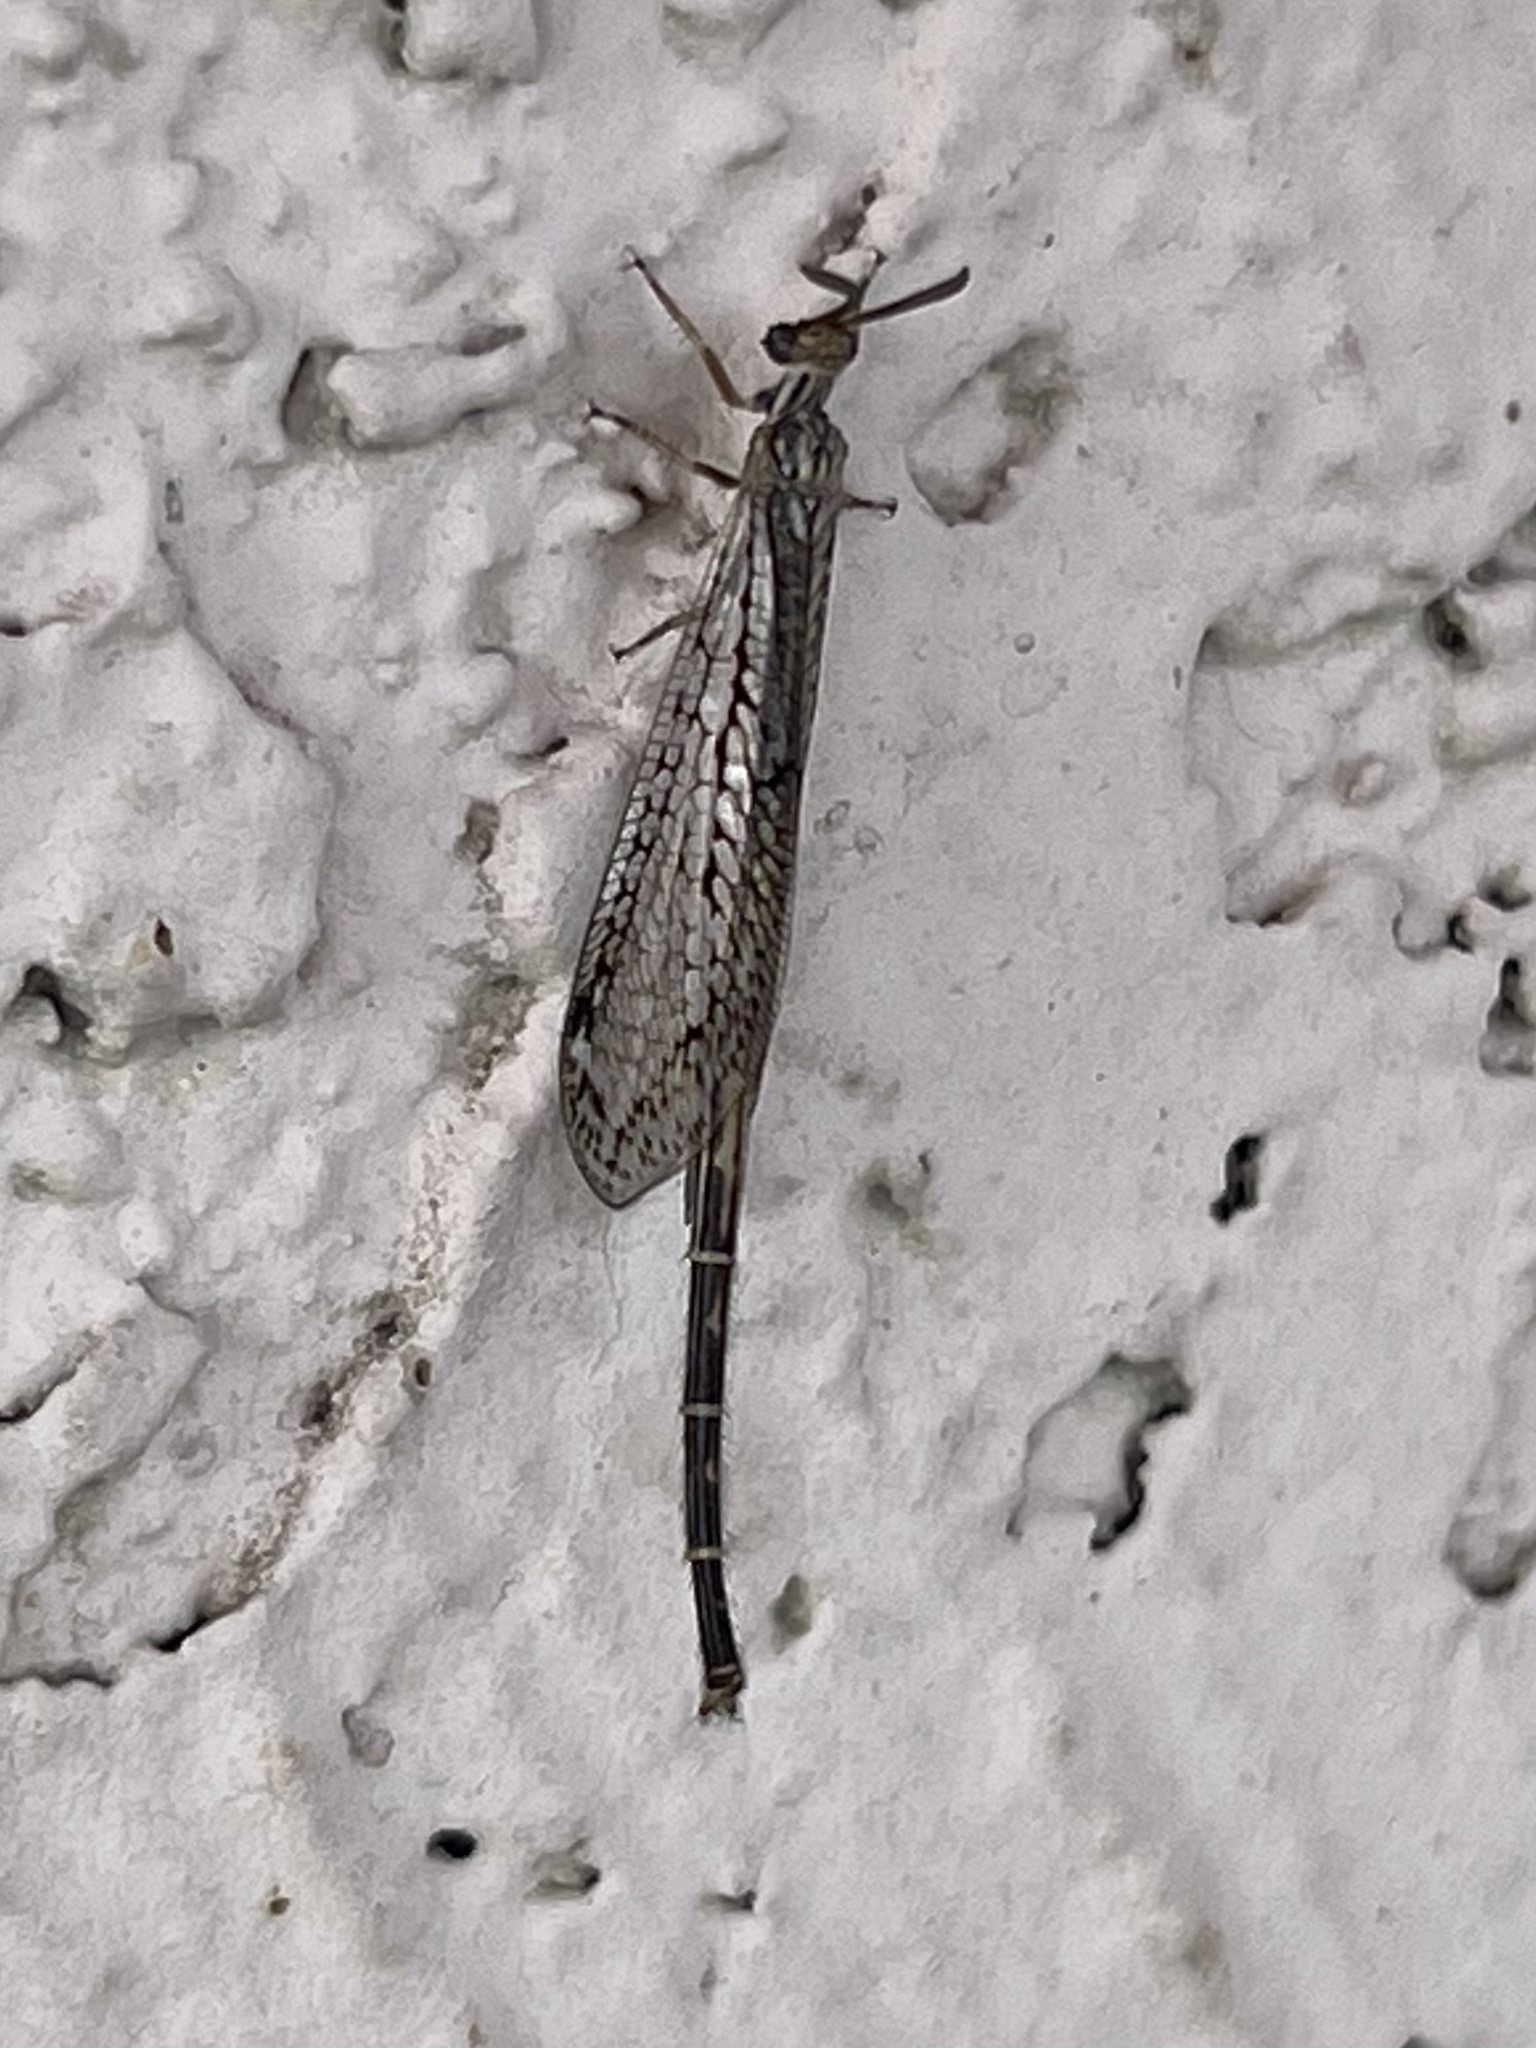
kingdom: Animalia
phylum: Arthropoda
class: Insecta
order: Neuroptera
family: Myrmeleontidae
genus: Scotoleon
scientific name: Scotoleon longipalpis
